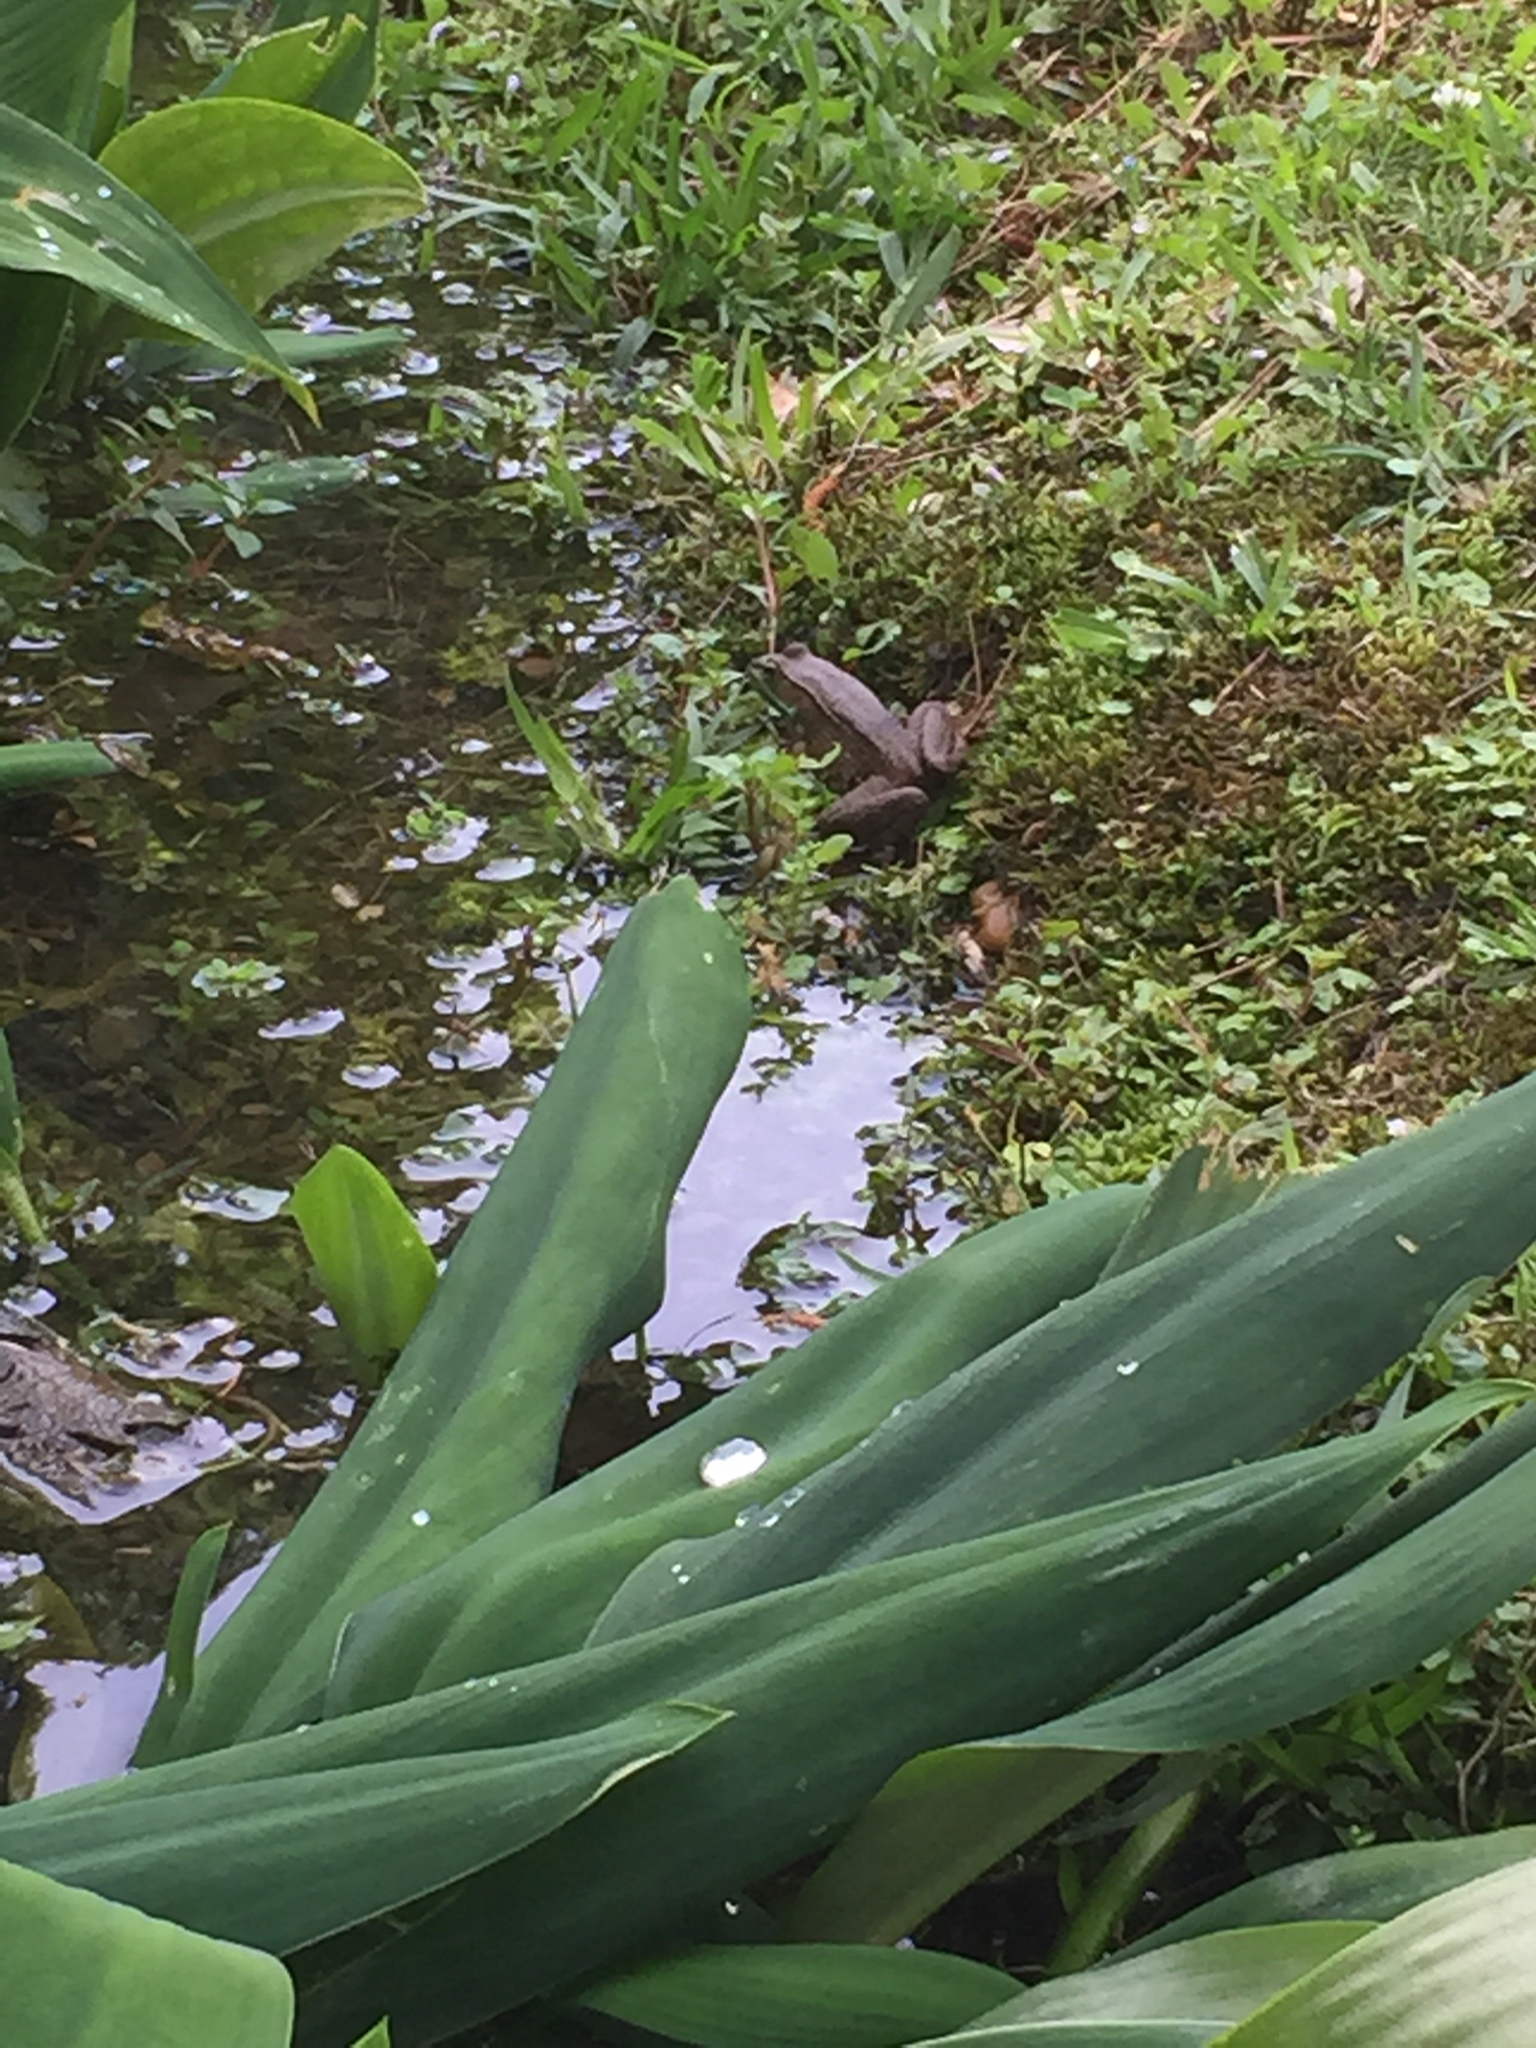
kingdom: Animalia
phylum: Chordata
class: Amphibia
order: Anura
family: Ranidae
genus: Lithobates
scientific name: Lithobates clamitans
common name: Green frog
